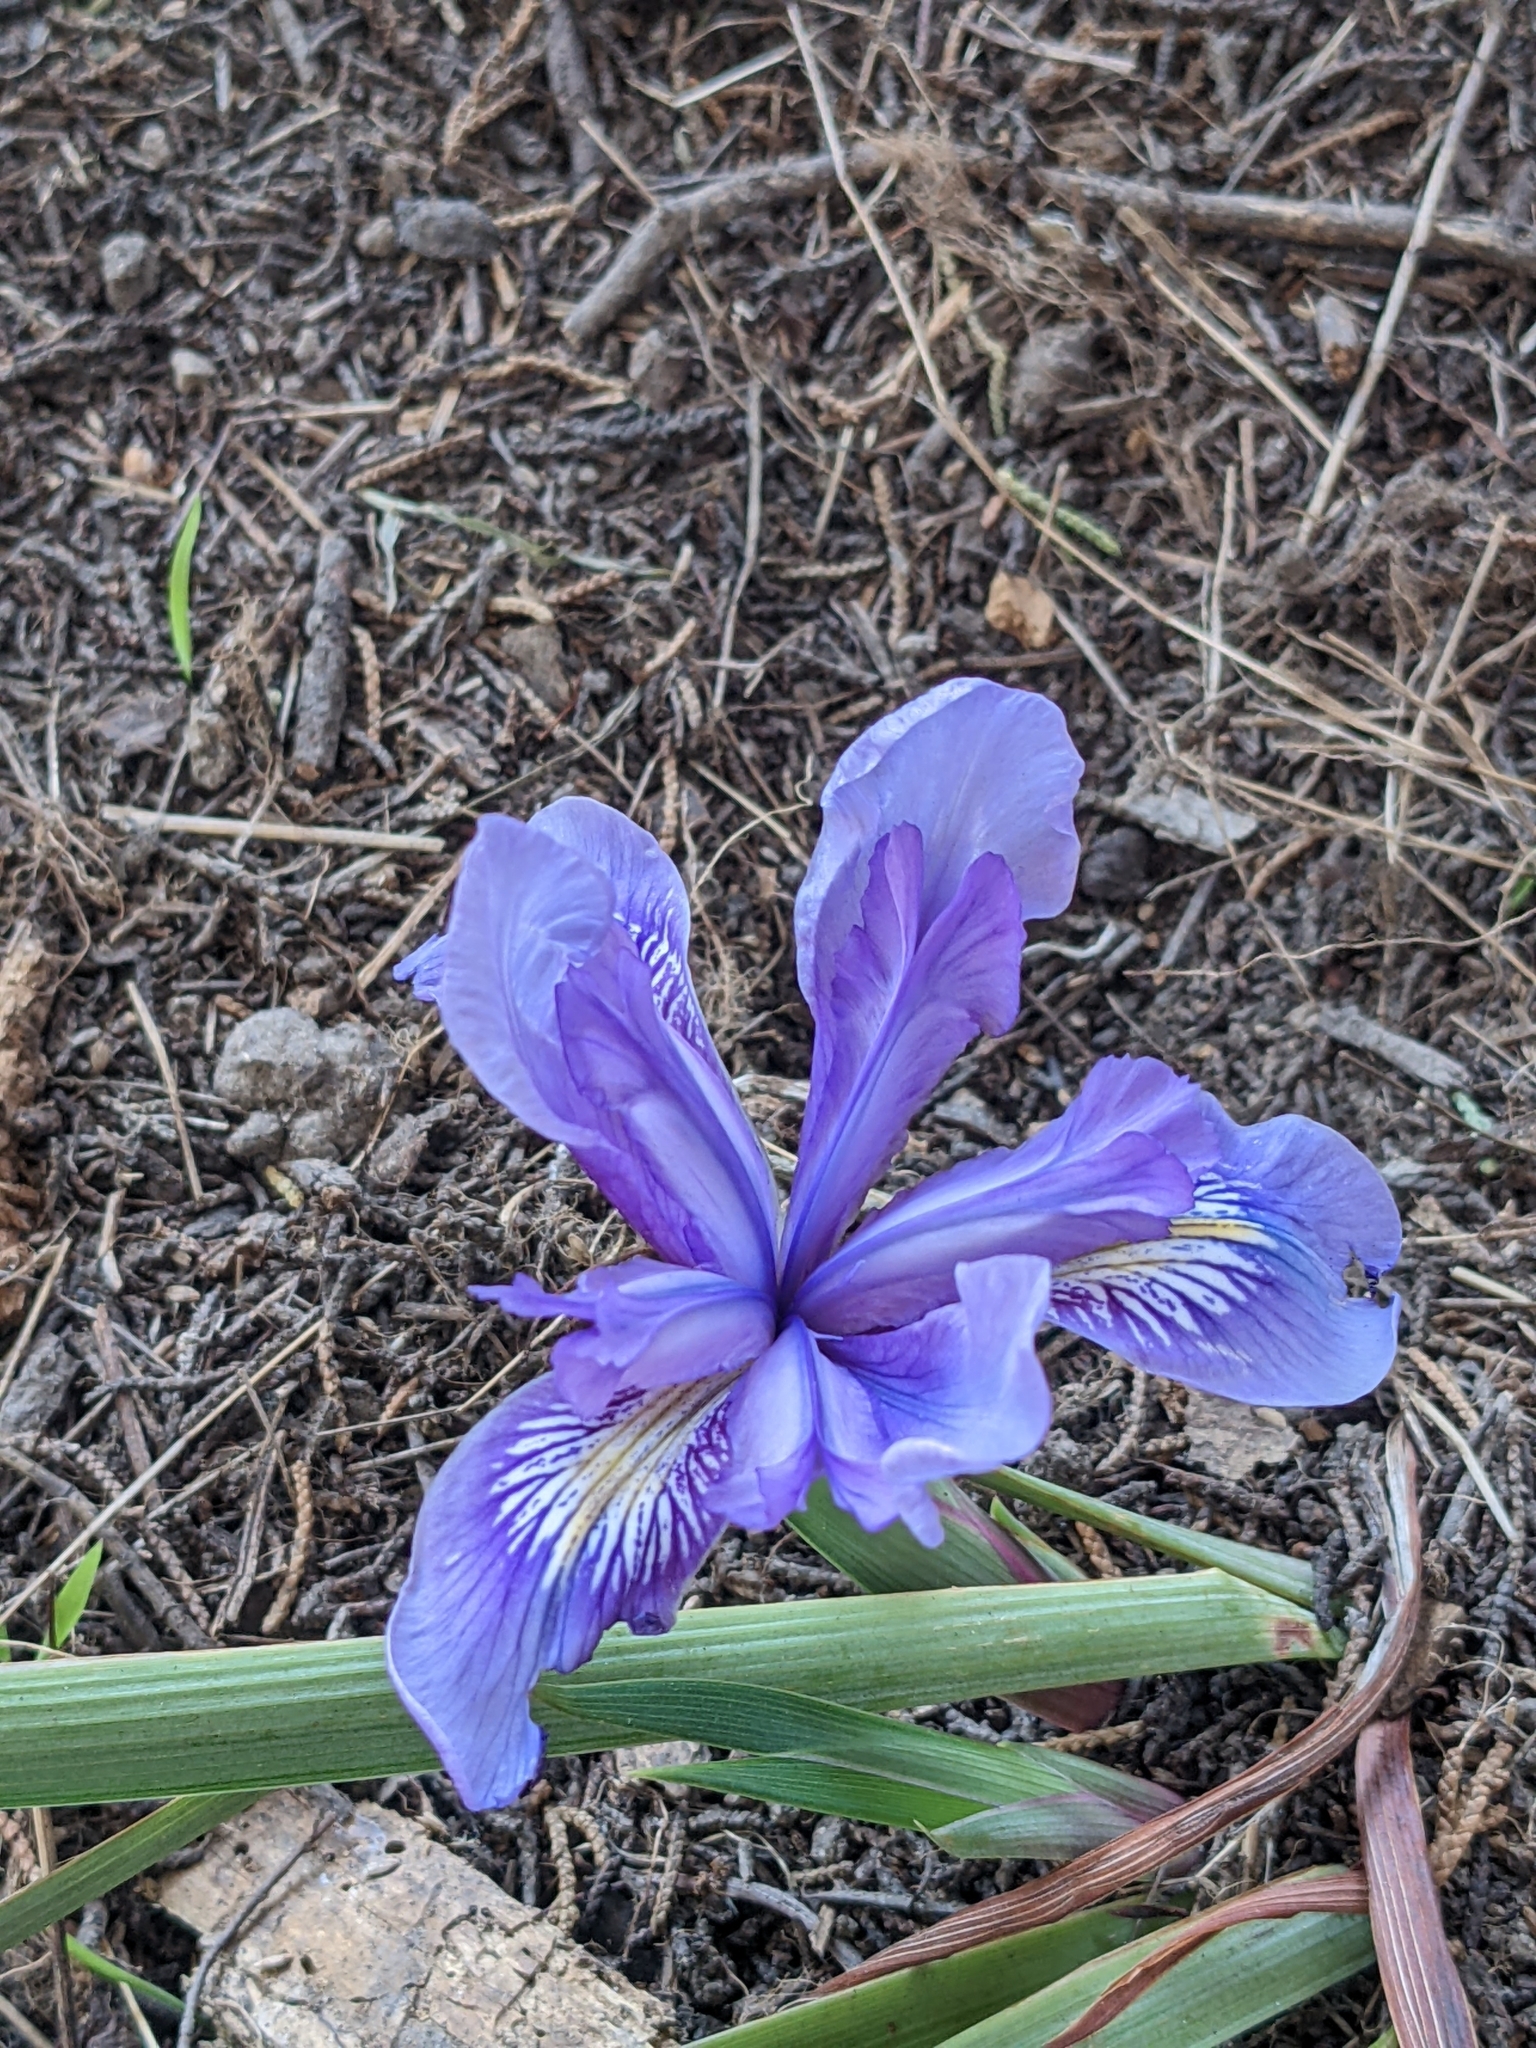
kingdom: Plantae
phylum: Tracheophyta
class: Liliopsida
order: Asparagales
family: Iridaceae
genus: Iris
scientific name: Iris douglasiana
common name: Marin iris
